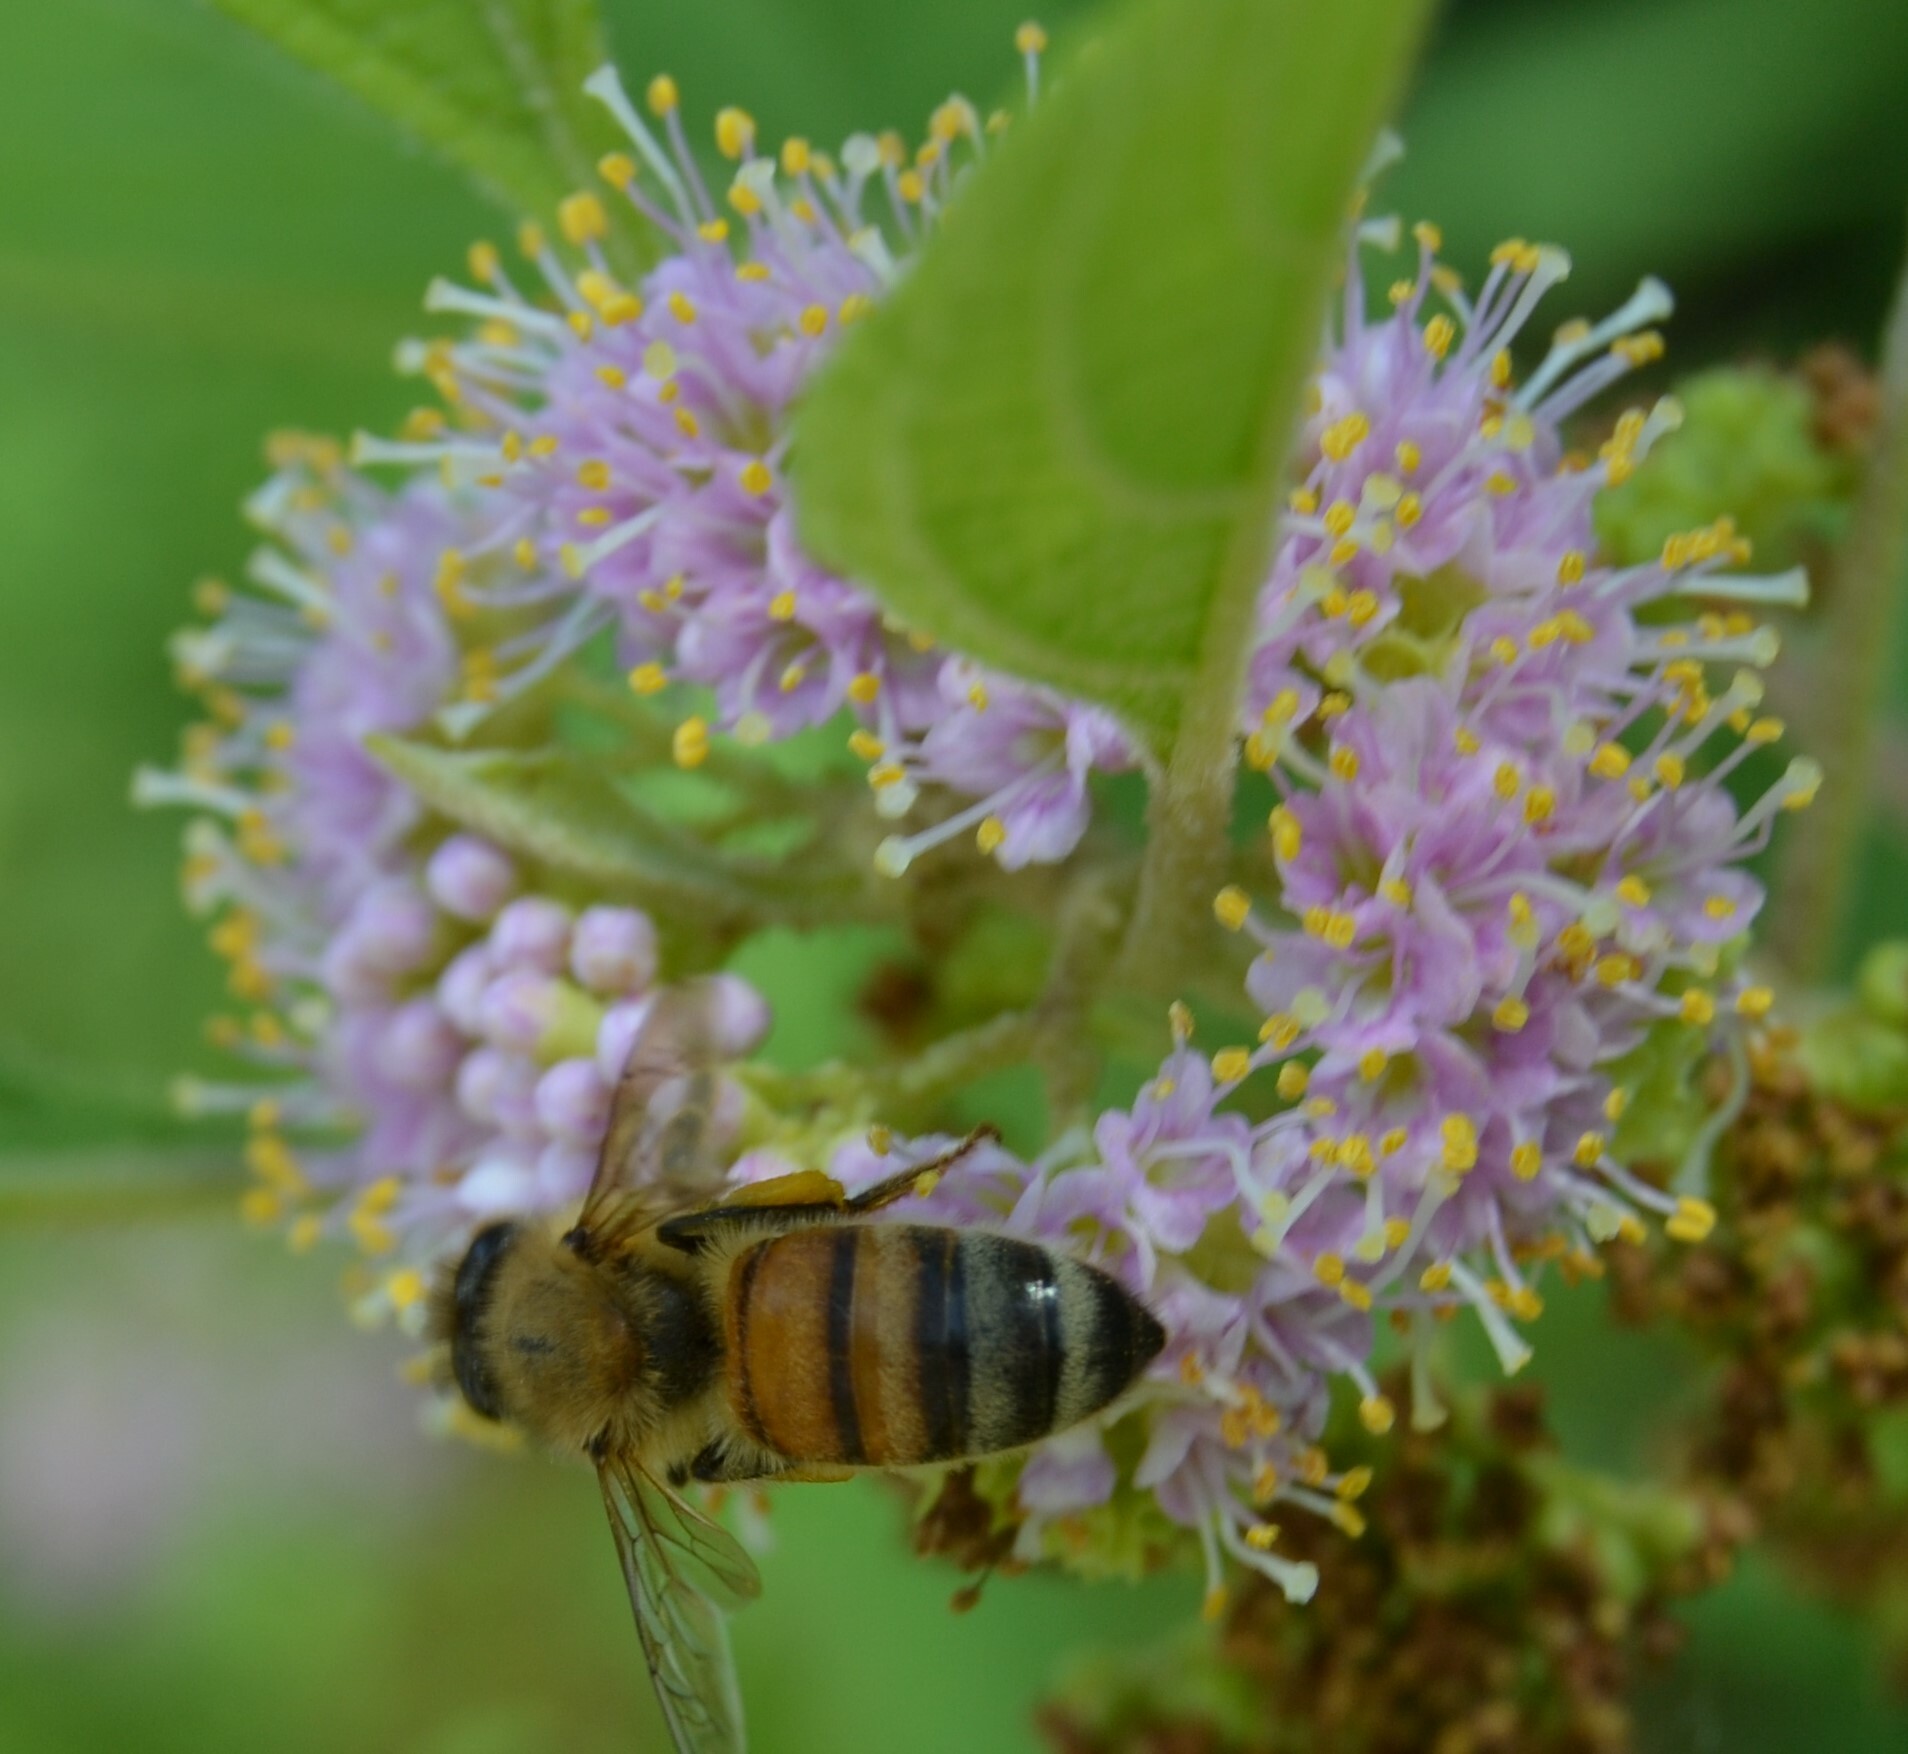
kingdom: Animalia
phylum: Arthropoda
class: Insecta
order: Hymenoptera
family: Apidae
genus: Apis
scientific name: Apis mellifera
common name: Honey bee
